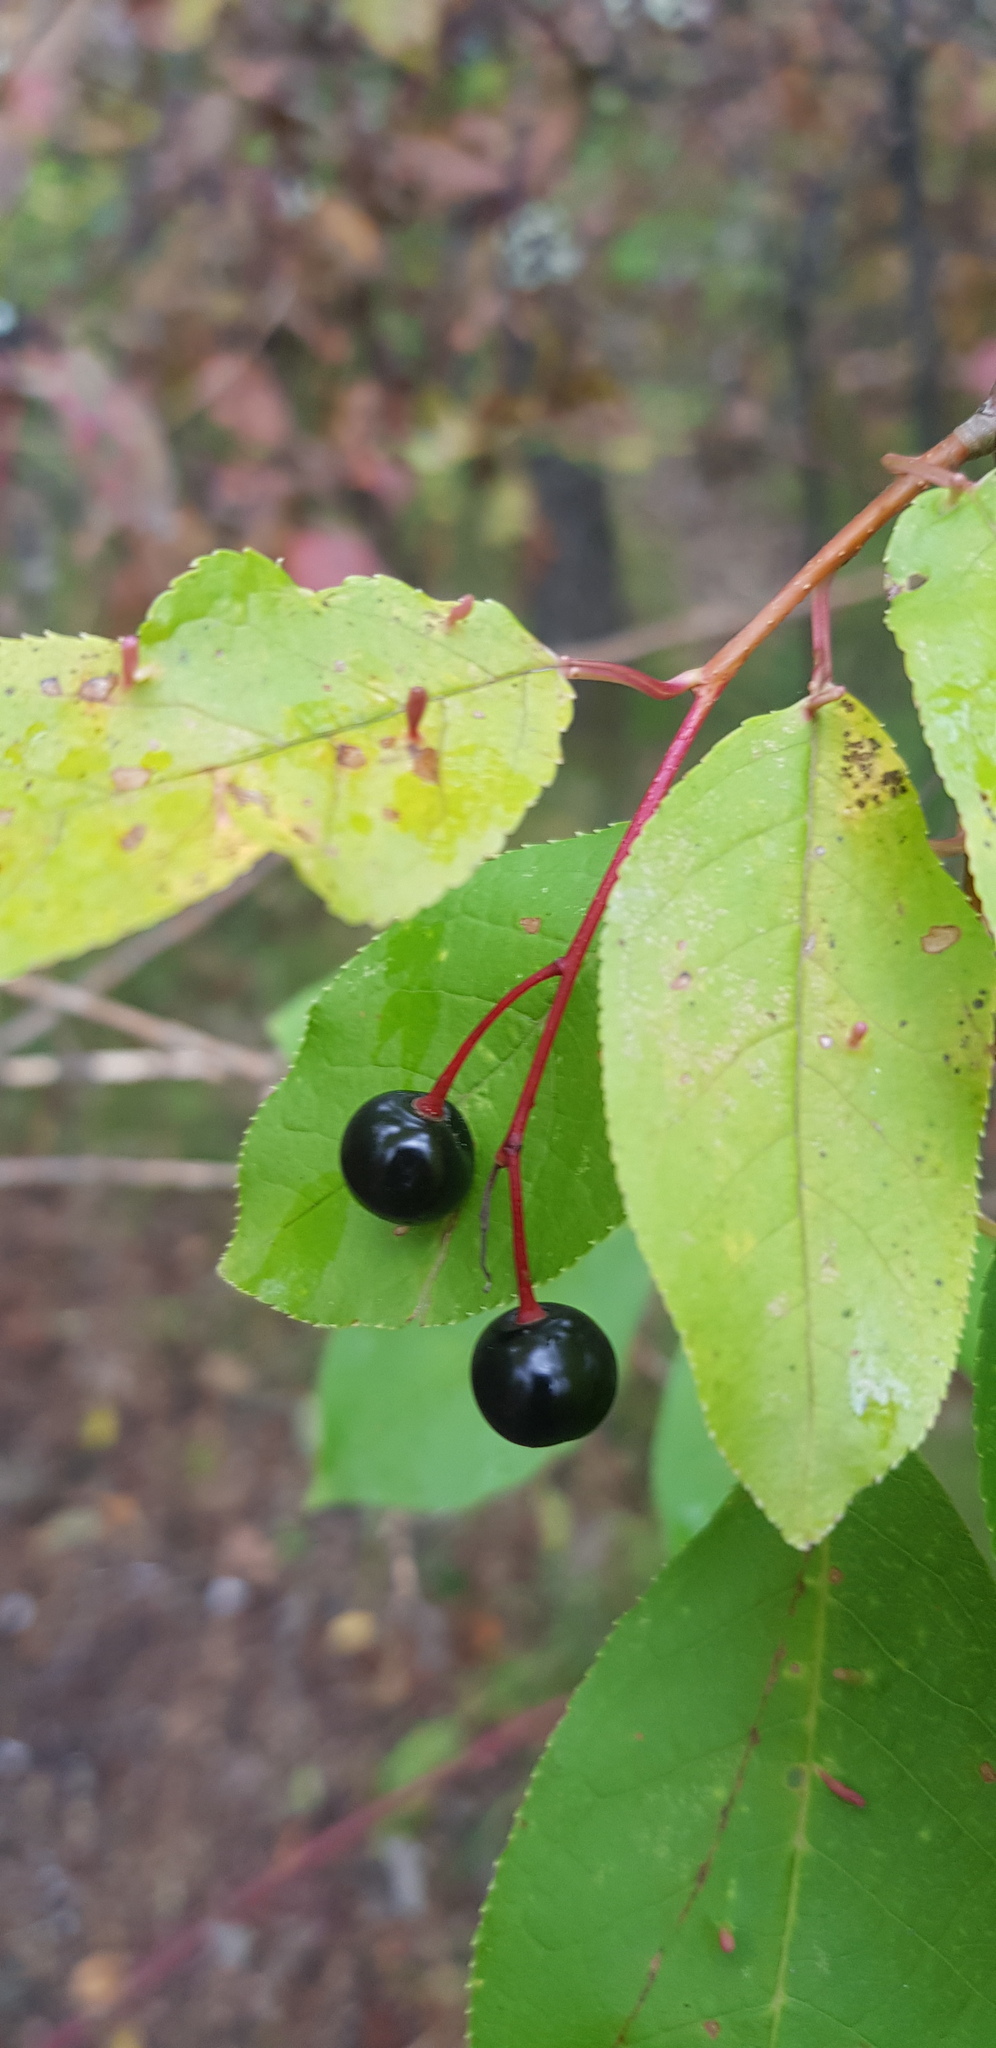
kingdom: Plantae
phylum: Tracheophyta
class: Magnoliopsida
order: Rosales
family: Rosaceae
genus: Prunus
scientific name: Prunus padus
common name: Bird cherry
